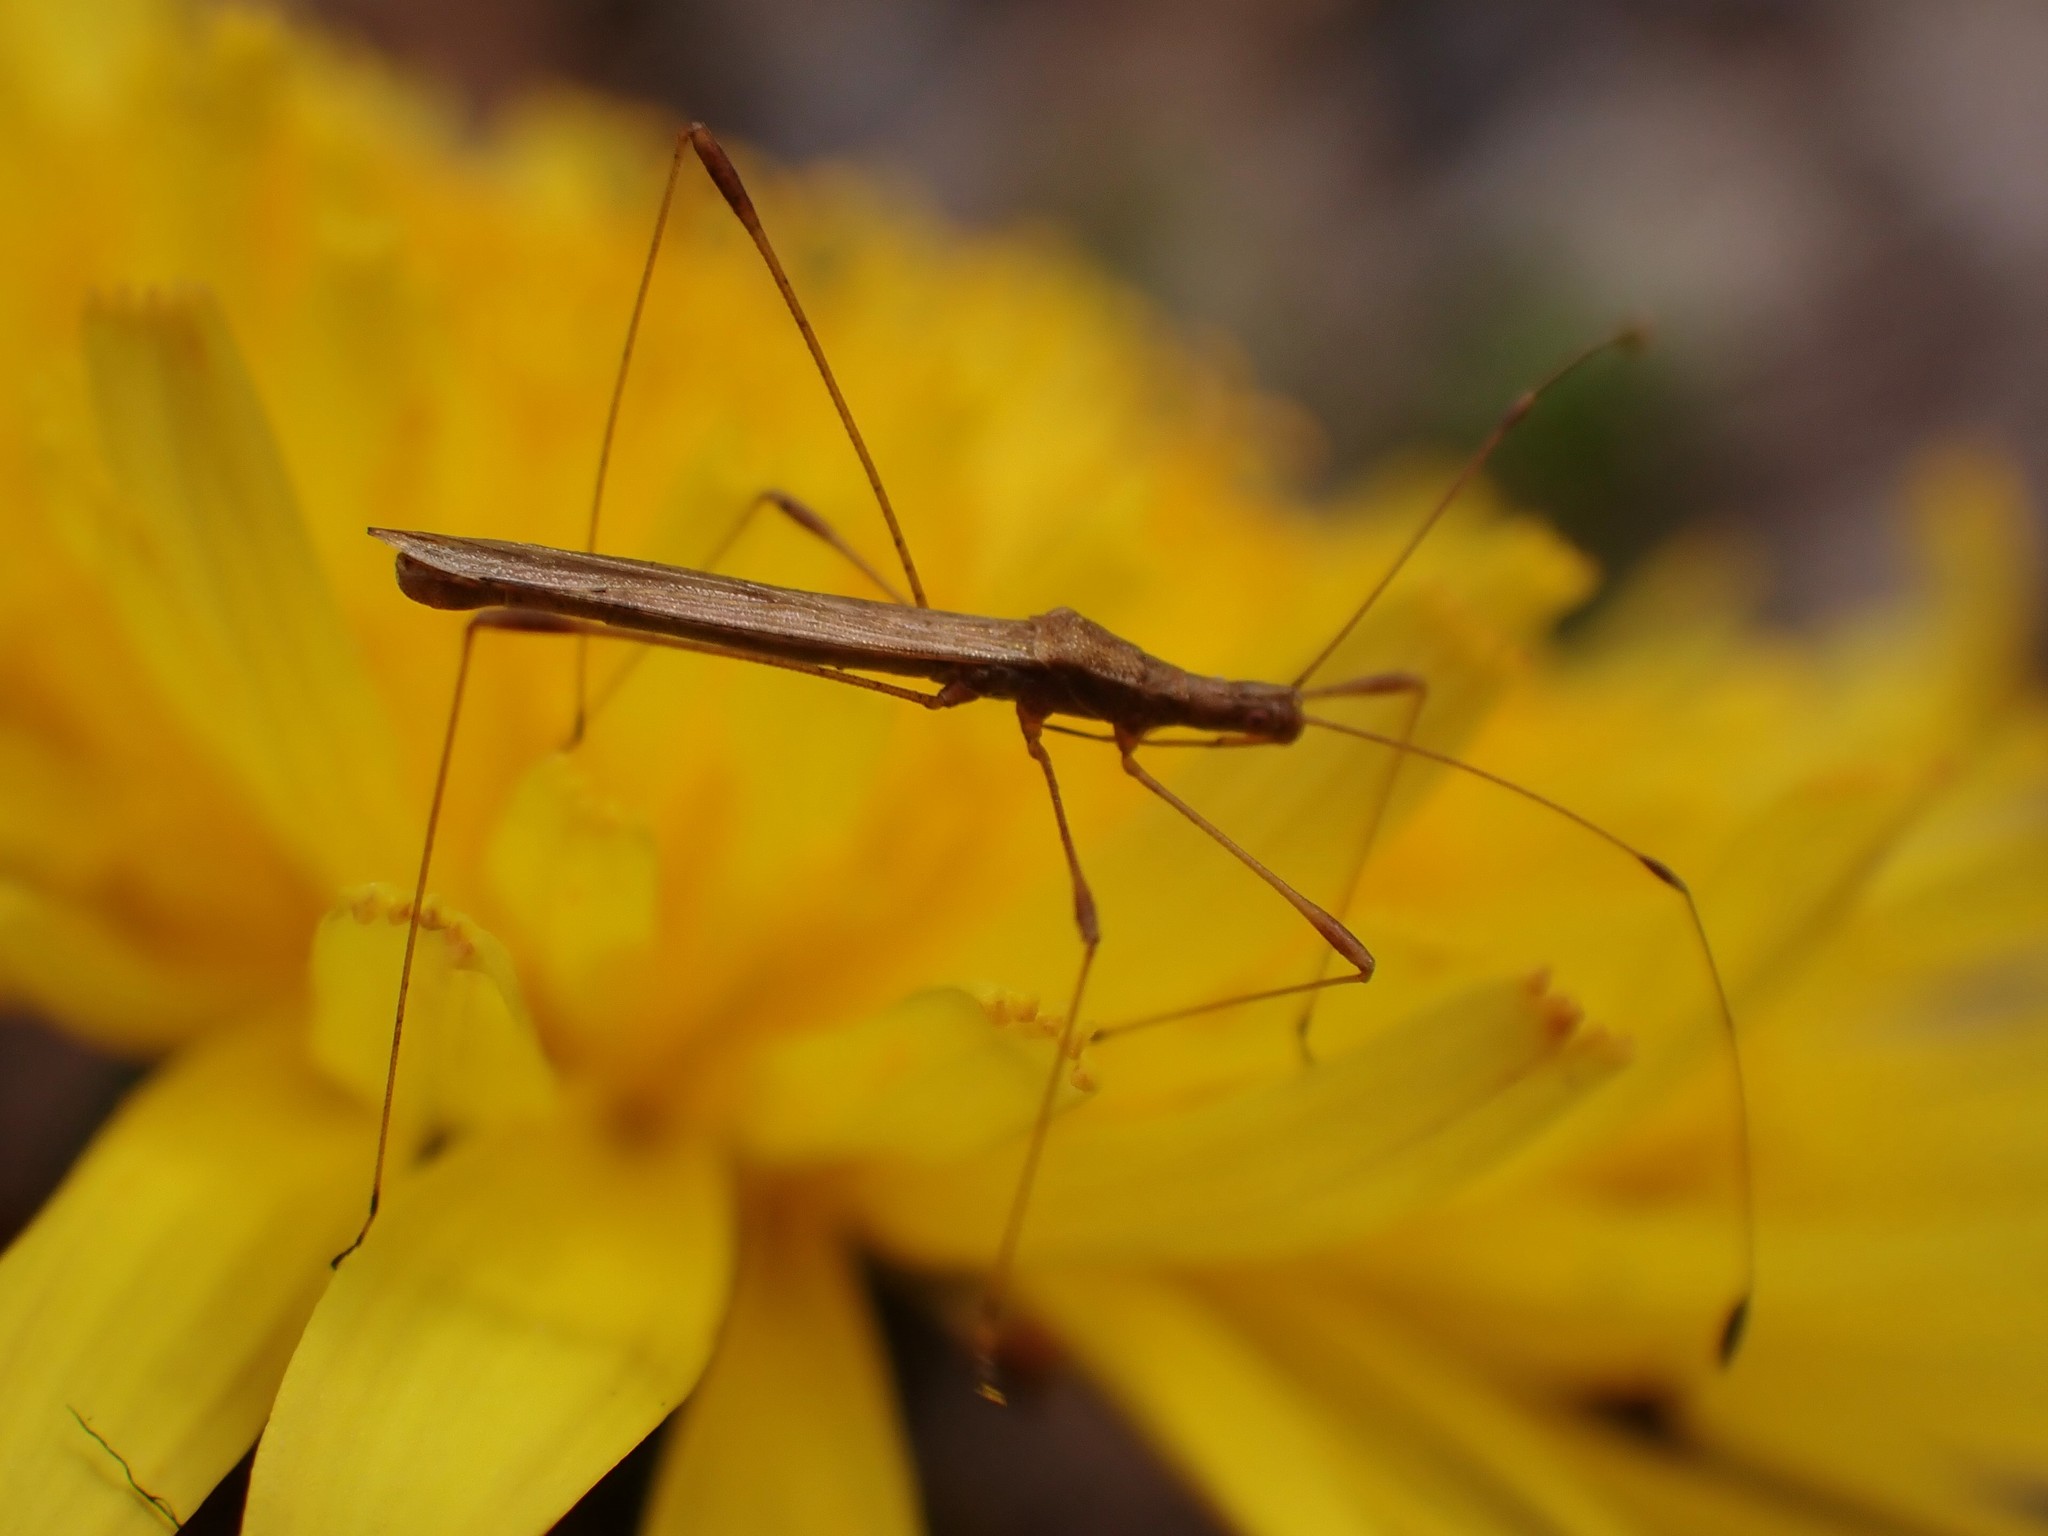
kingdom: Animalia
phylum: Arthropoda
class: Insecta
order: Hemiptera
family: Berytidae
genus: Neoneides
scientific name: Neoneides muticus
